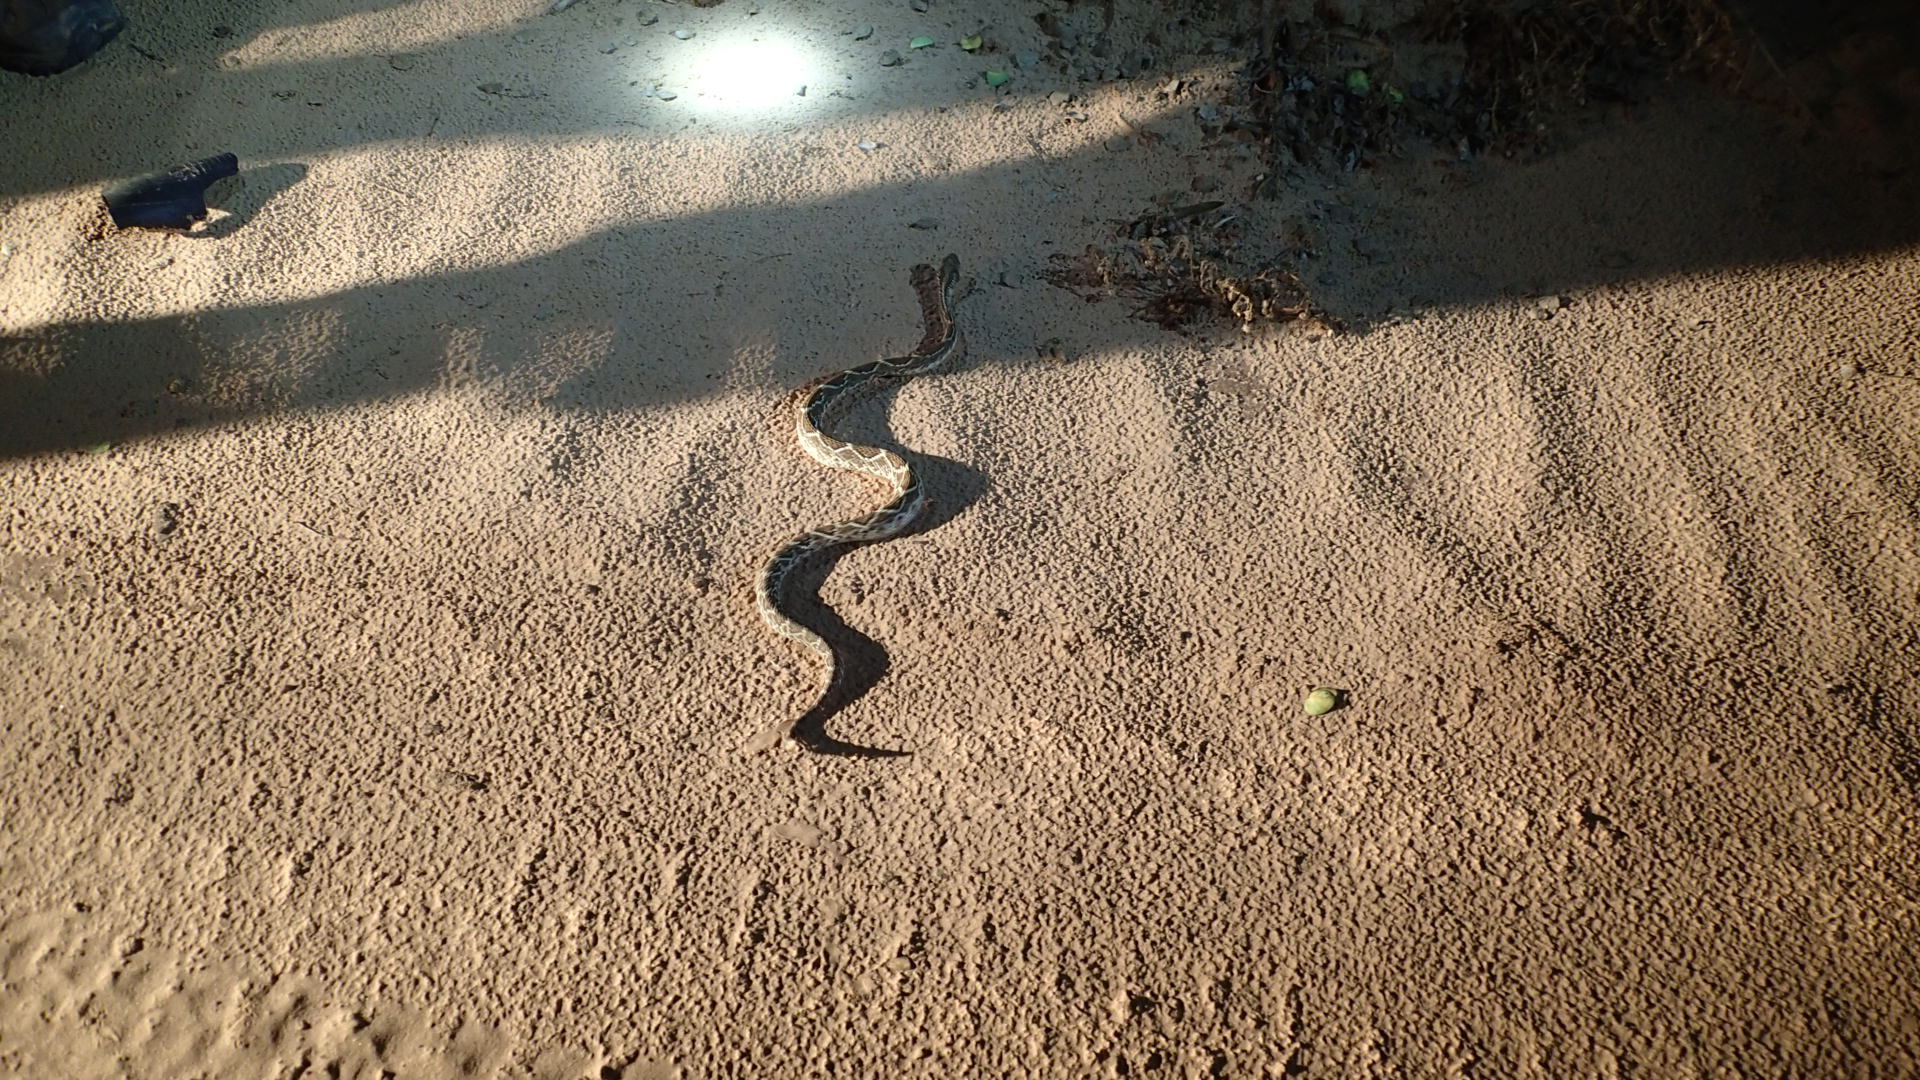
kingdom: Animalia
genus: Crotalus
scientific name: Crotalus durissus
